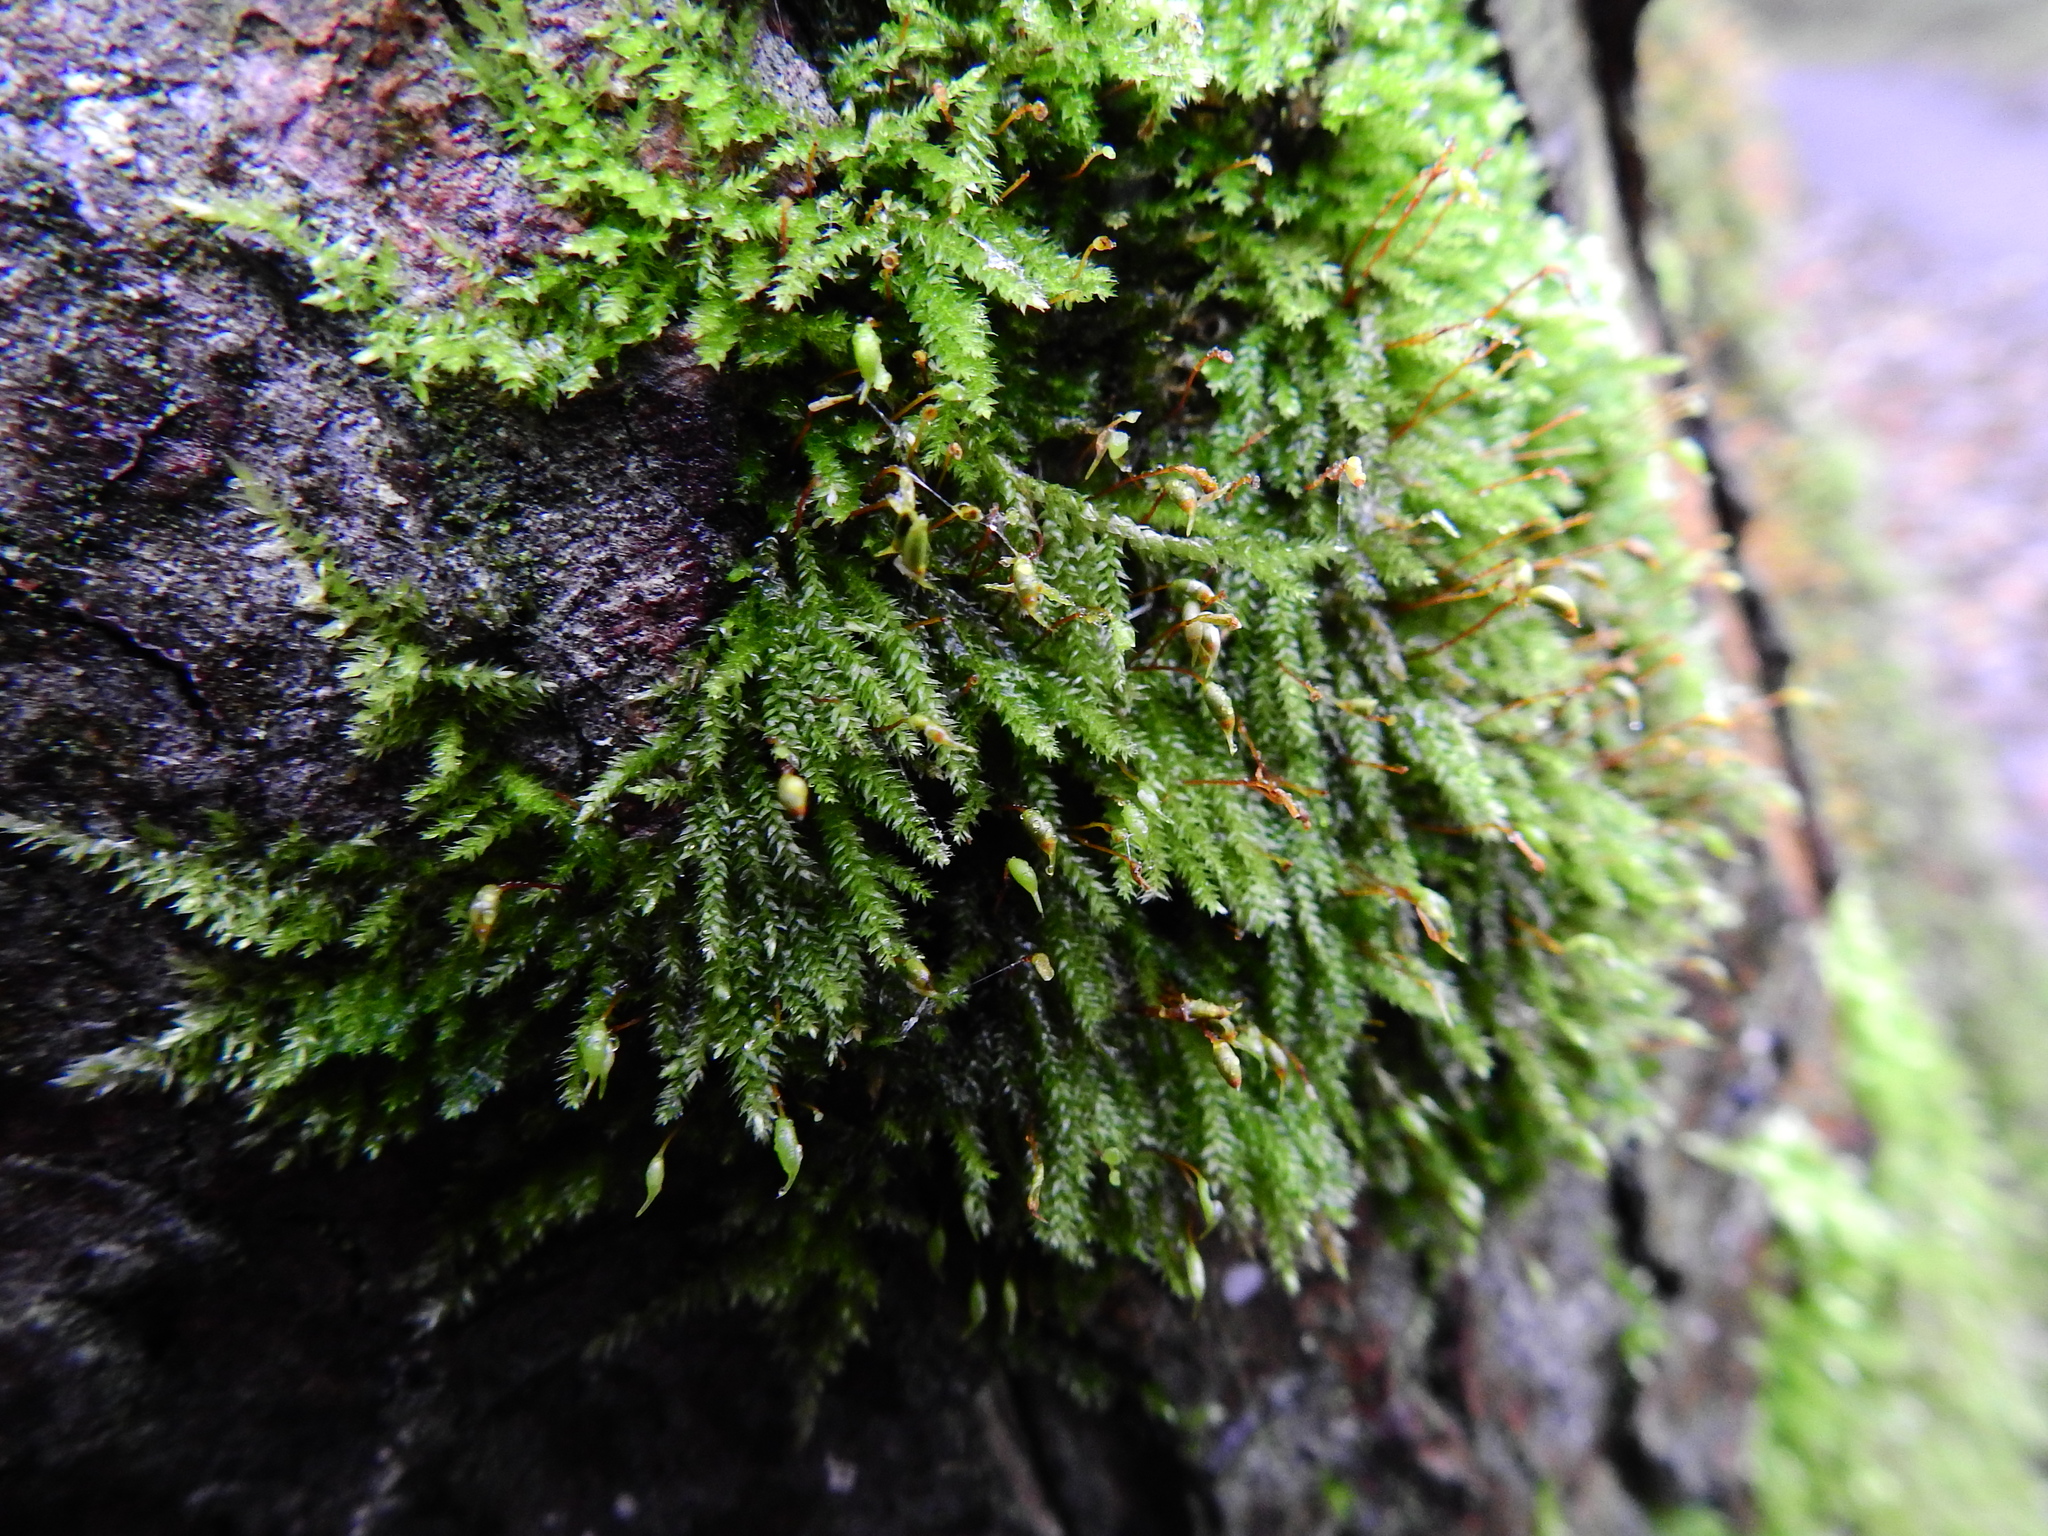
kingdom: Plantae
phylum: Bryophyta
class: Bryopsida
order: Hypnales
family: Brachytheciaceae
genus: Rhynchostegium
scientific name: Rhynchostegium confertum
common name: Clustered feather-moss
